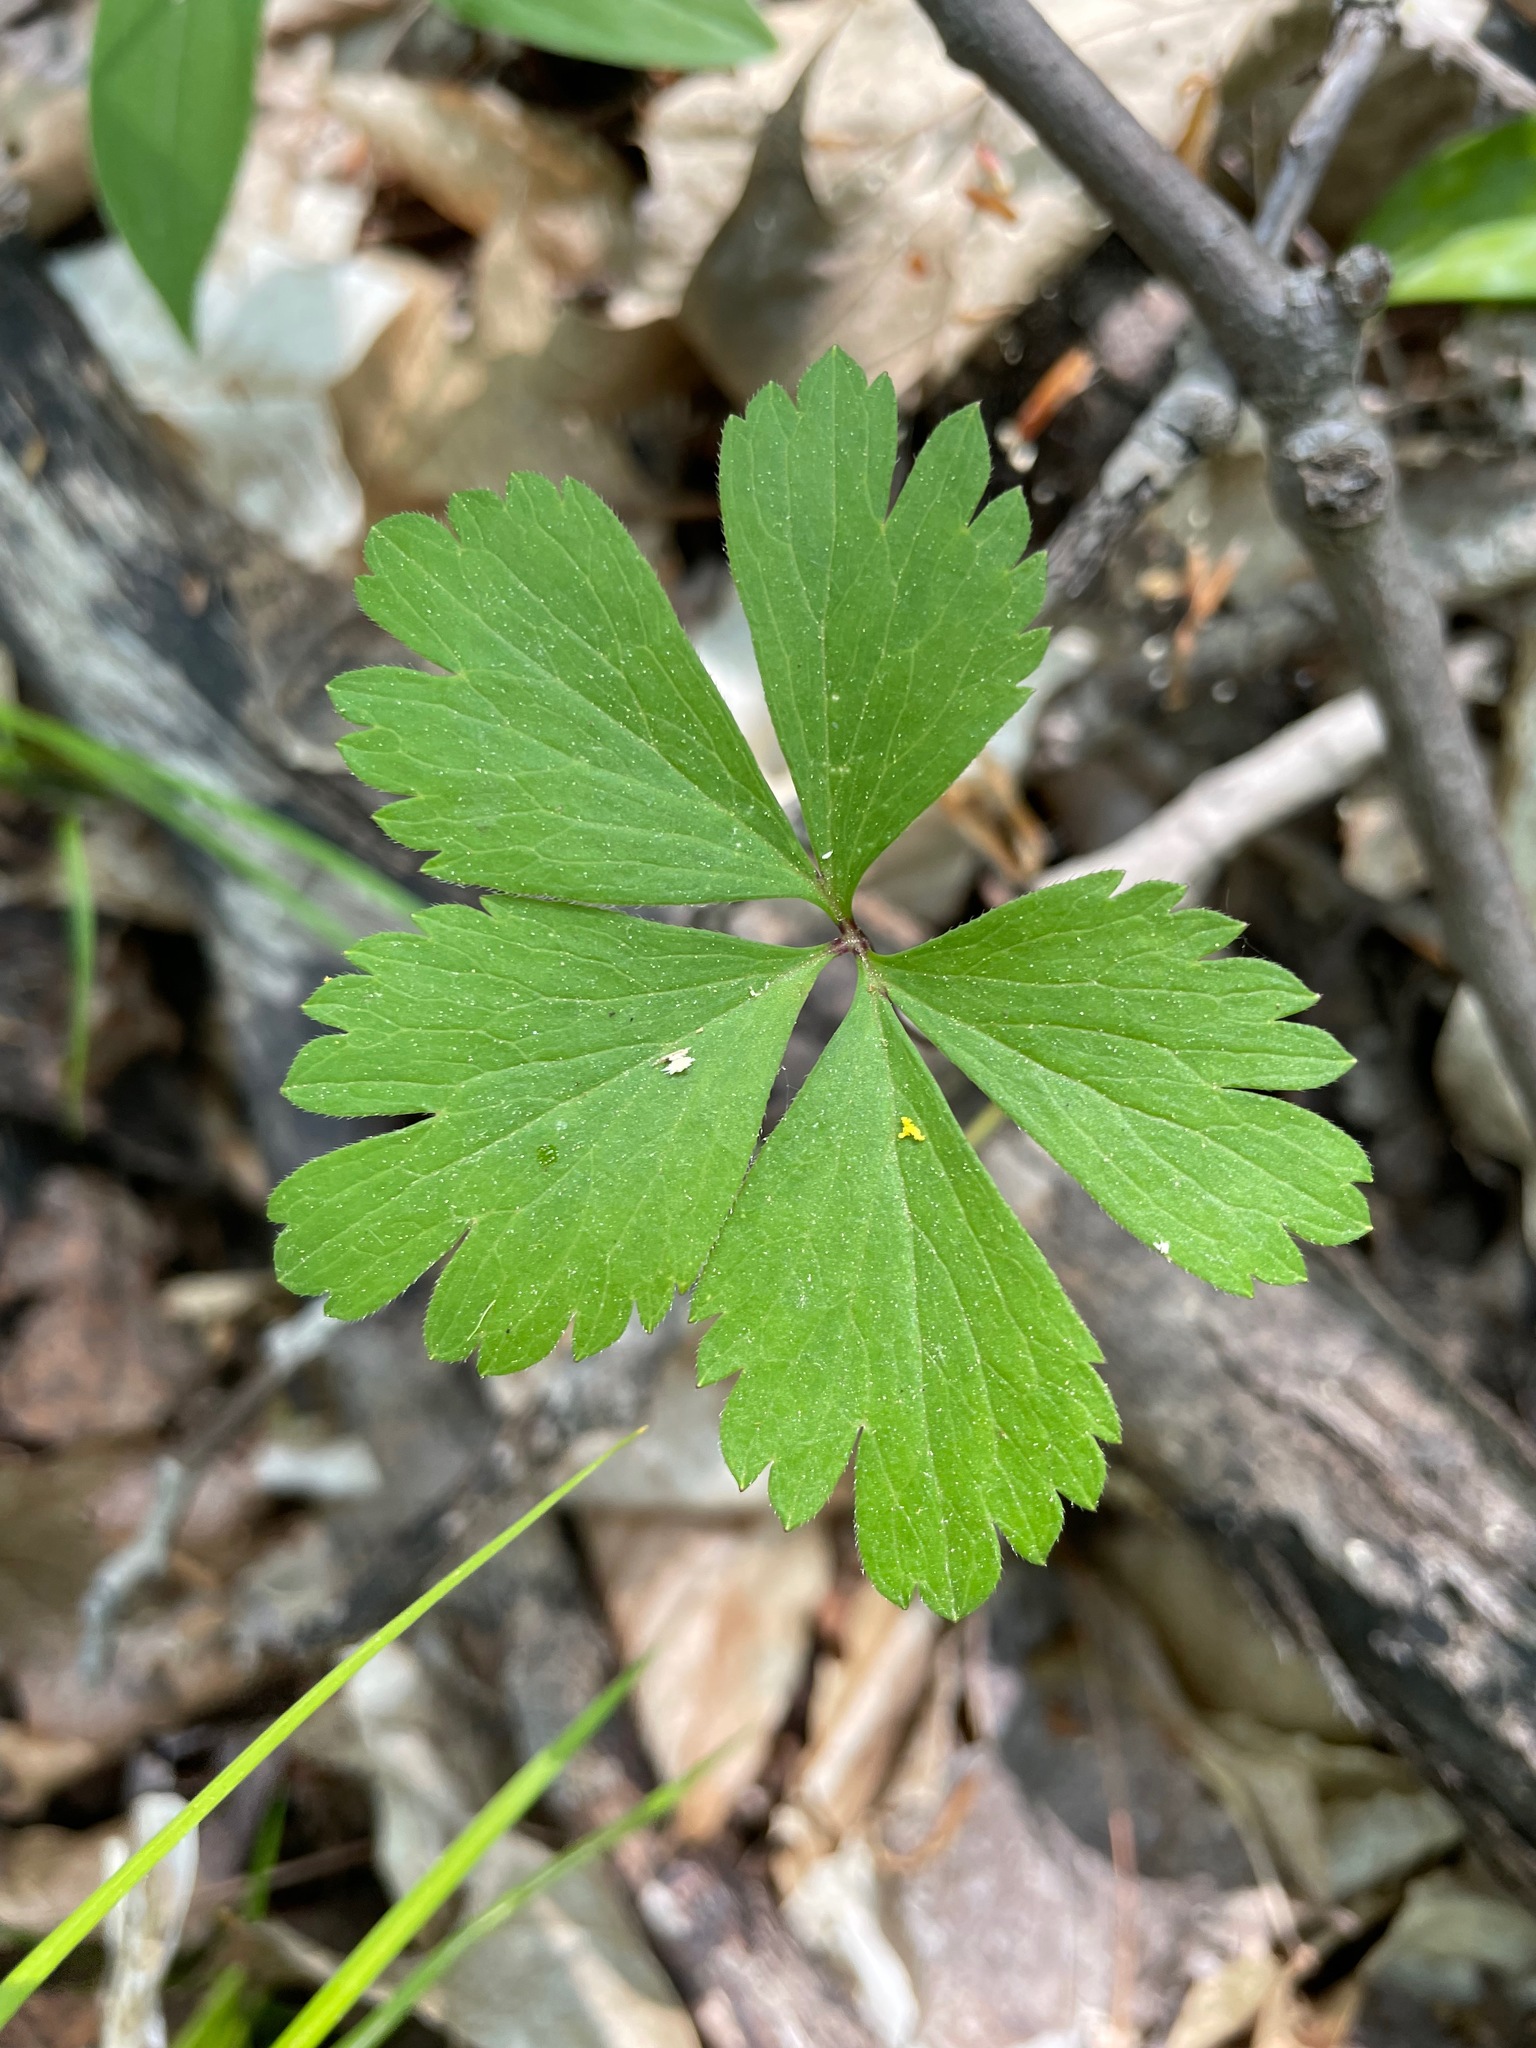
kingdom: Plantae
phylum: Tracheophyta
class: Magnoliopsida
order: Ranunculales
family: Ranunculaceae
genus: Anemone
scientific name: Anemone quinquefolia
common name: Wood anemone
